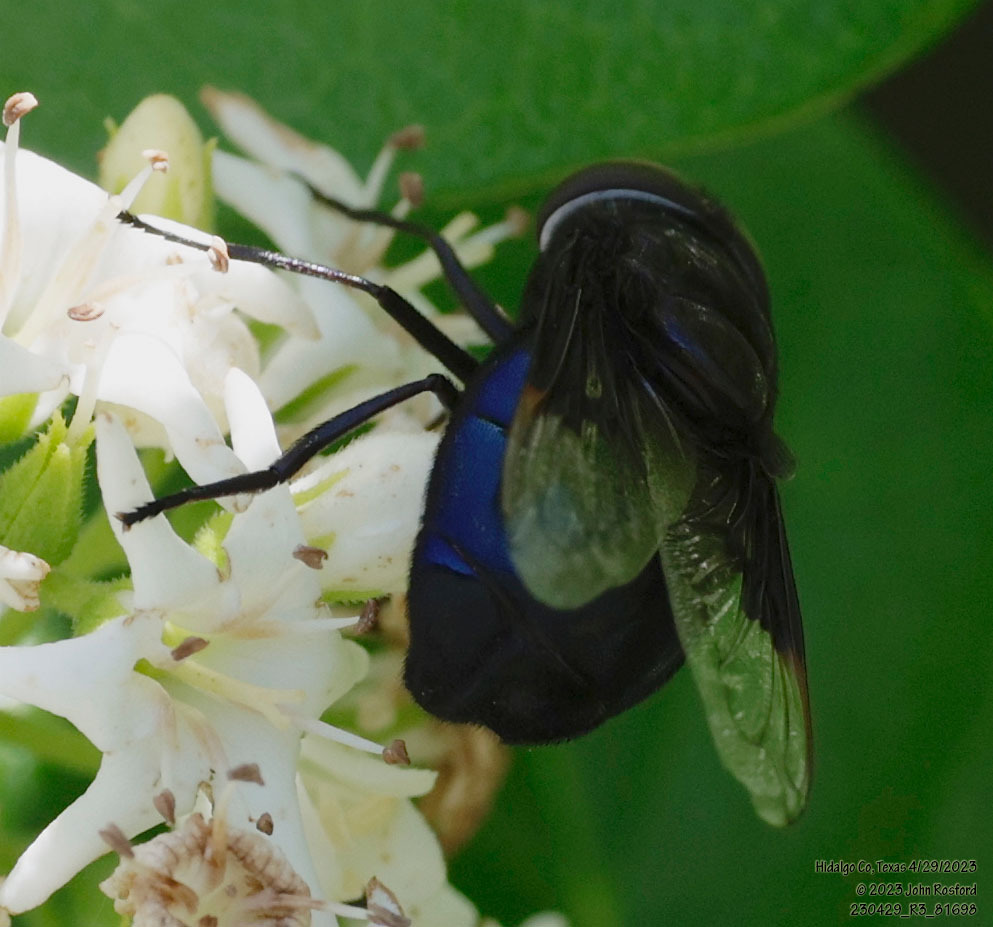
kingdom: Animalia
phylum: Arthropoda
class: Insecta
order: Diptera
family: Syrphidae
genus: Copestylum
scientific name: Copestylum mexicanum
